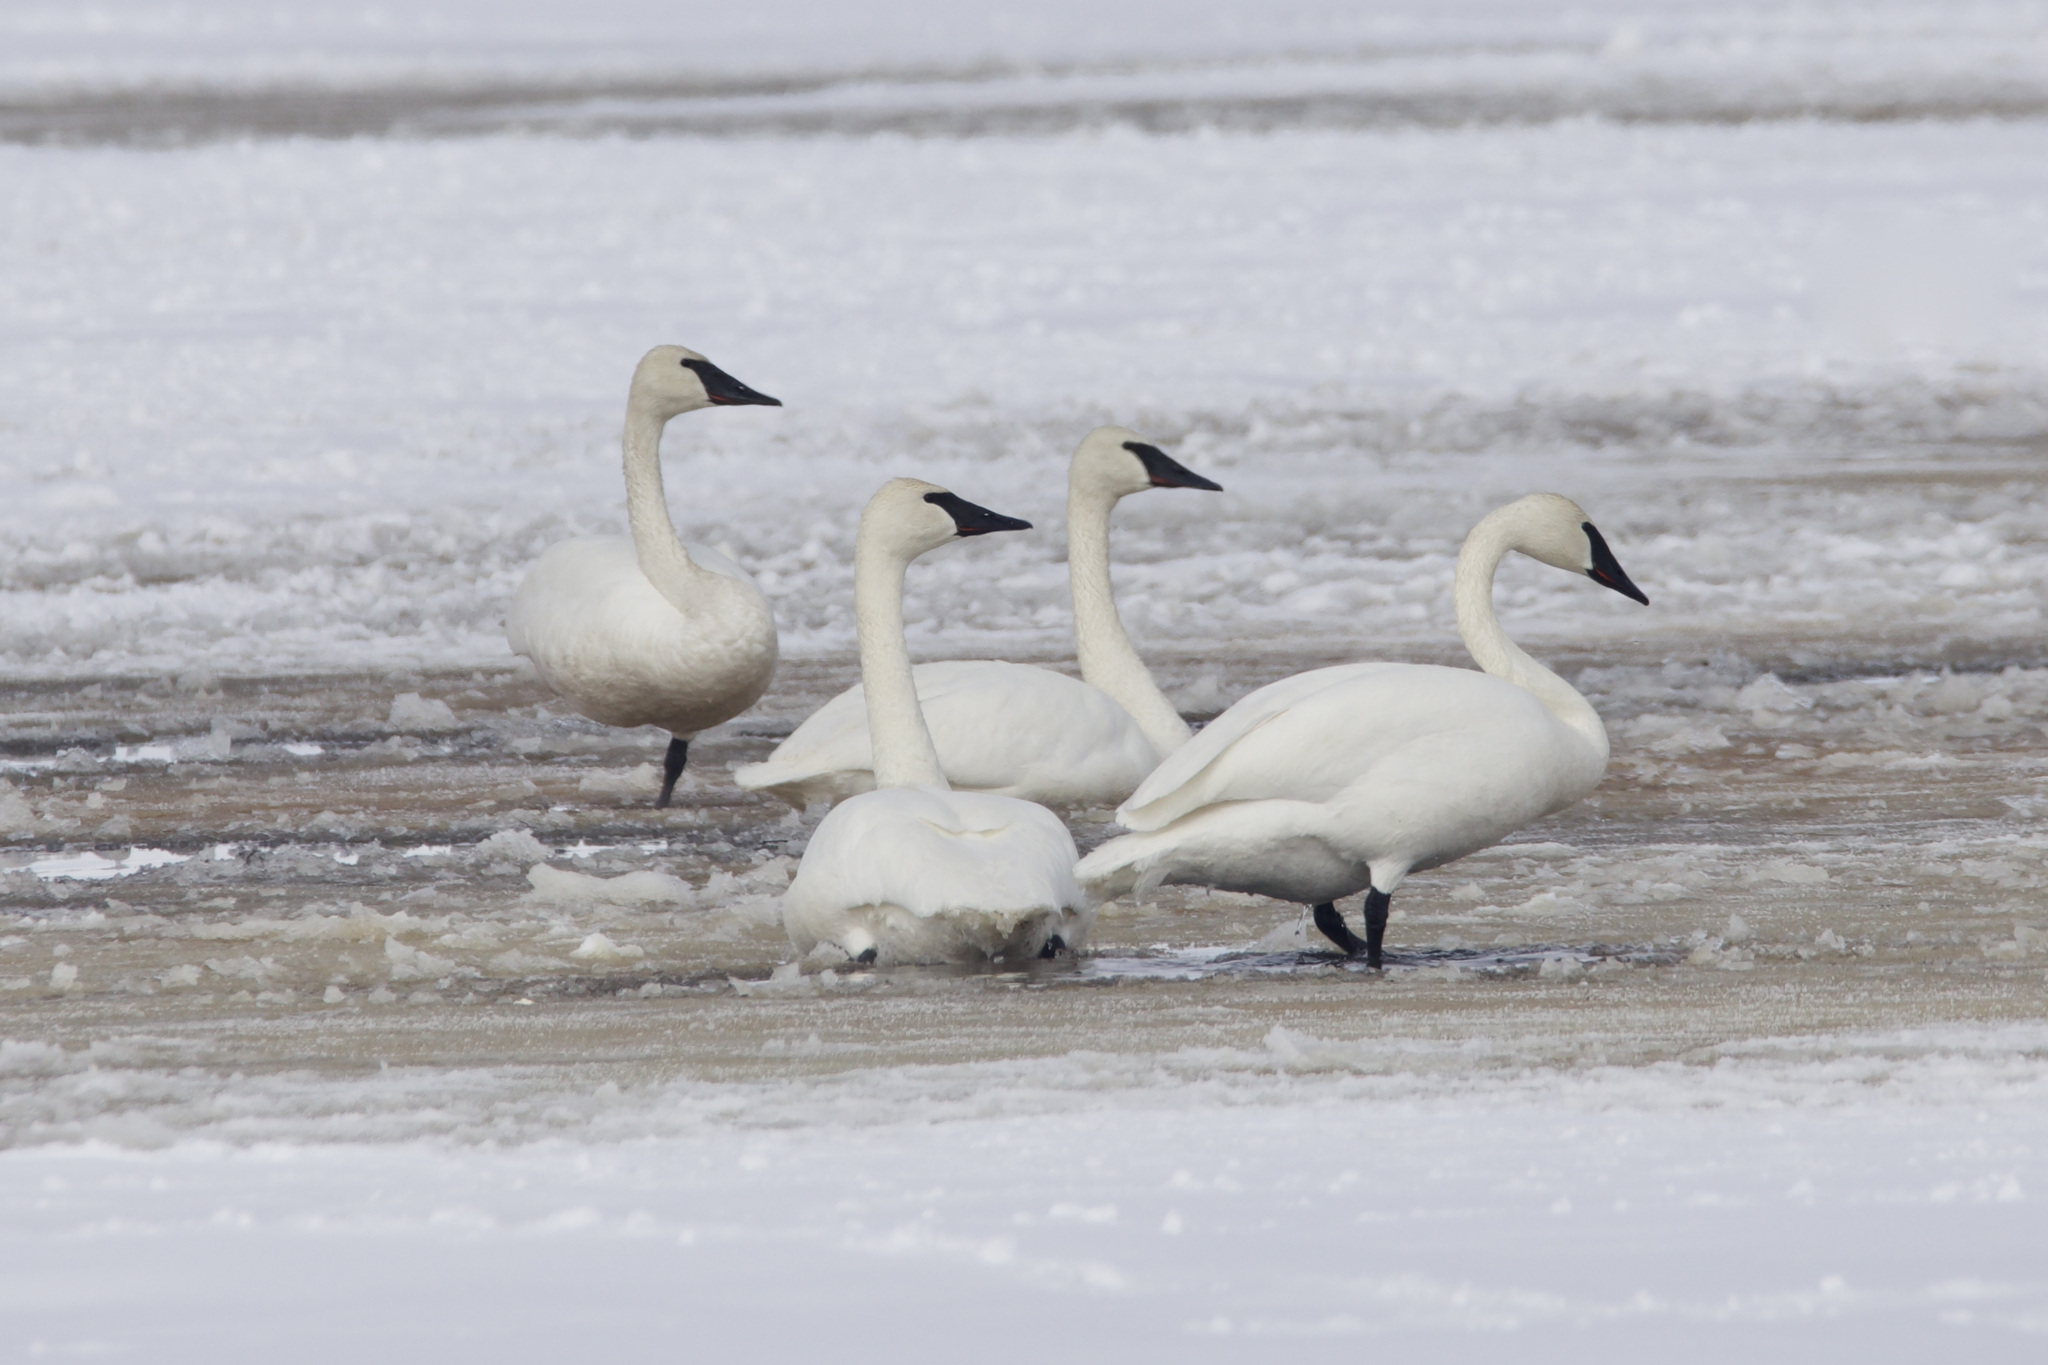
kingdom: Animalia
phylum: Chordata
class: Aves
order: Anseriformes
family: Anatidae
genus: Cygnus
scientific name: Cygnus buccinator
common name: Trumpeter swan
